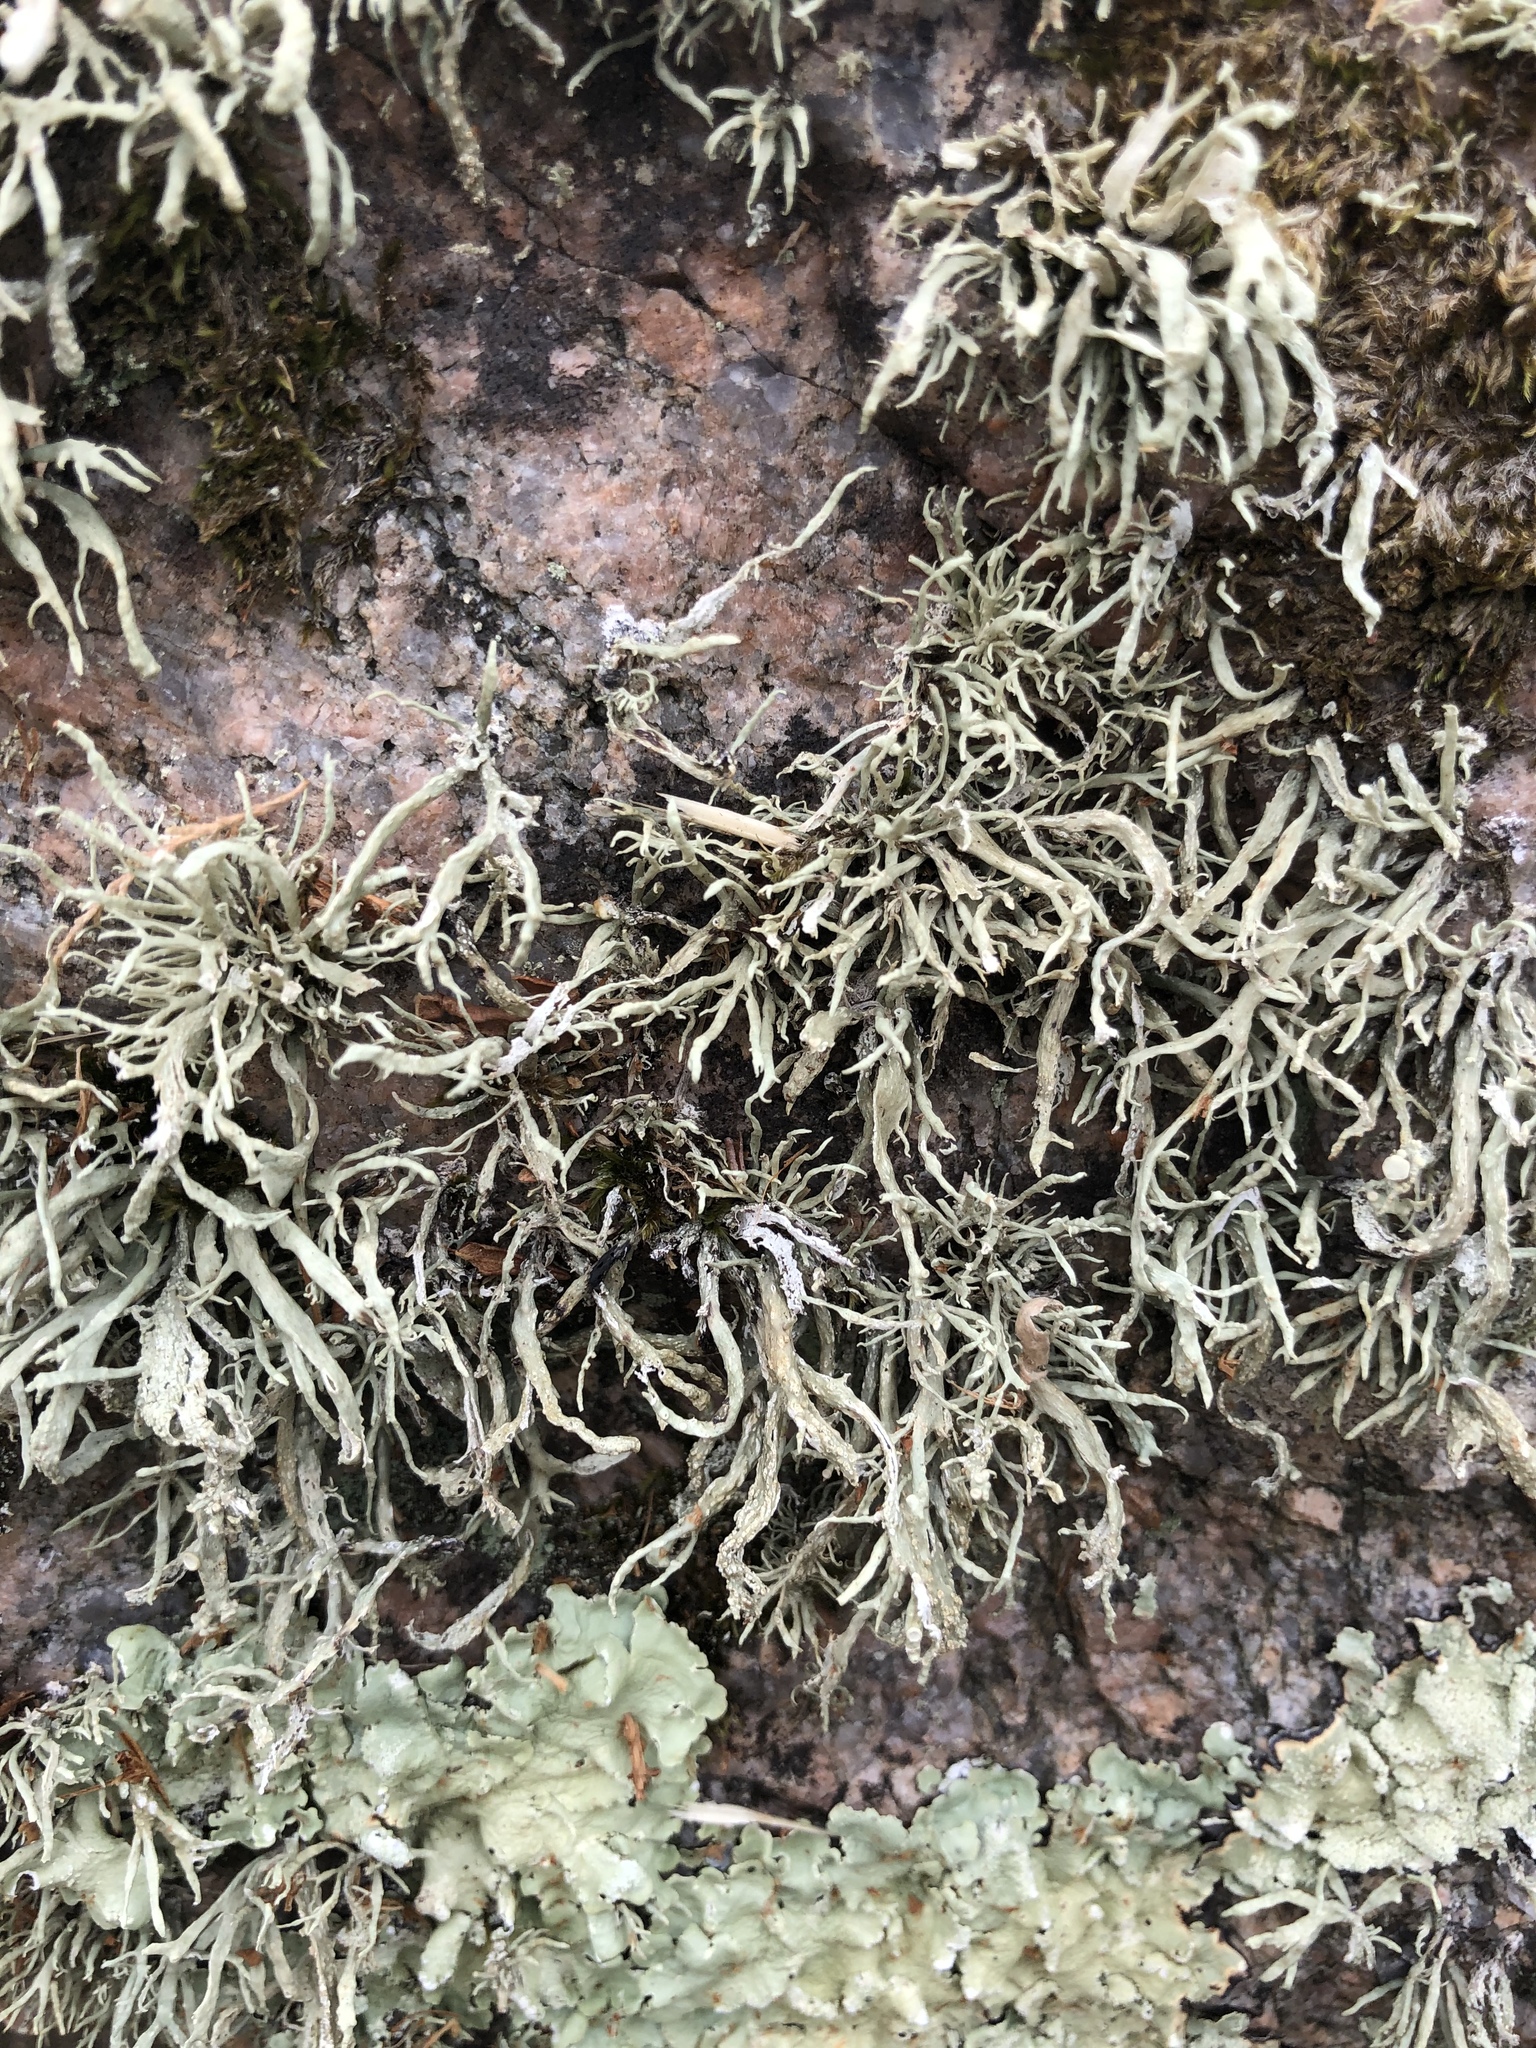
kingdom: Fungi
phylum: Ascomycota
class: Lecanoromycetes
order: Lecanorales
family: Ramalinaceae
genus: Ramalina
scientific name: Ramalina siliquosa
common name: Sea ivory
